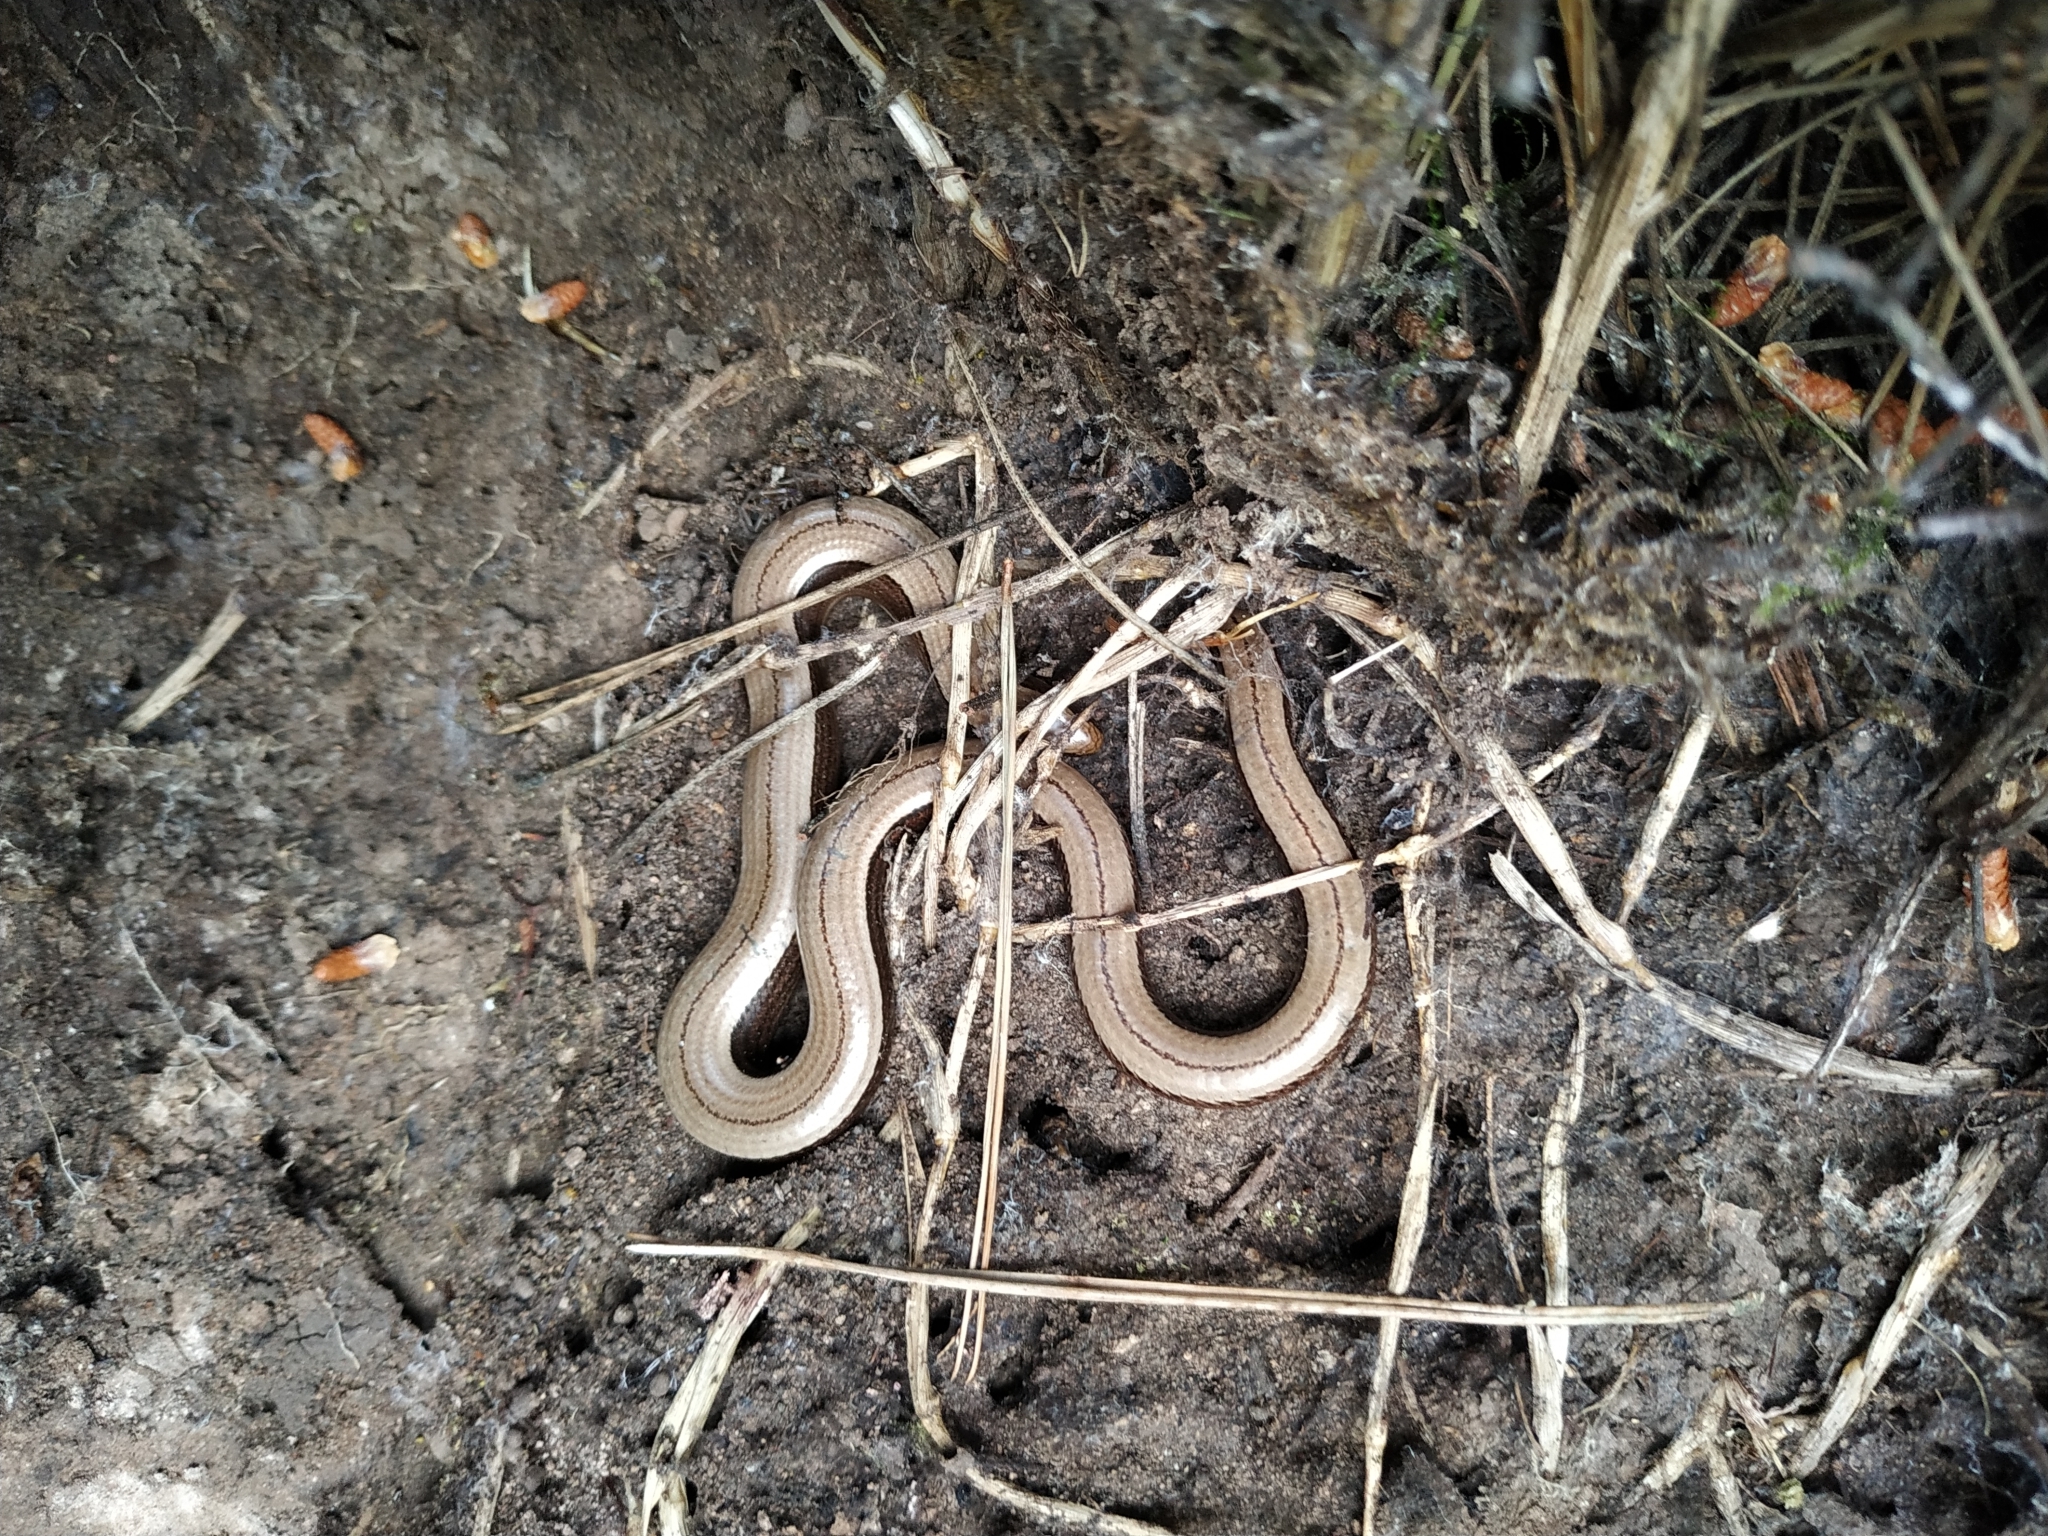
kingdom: Animalia
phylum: Chordata
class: Squamata
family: Anguidae
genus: Anguis
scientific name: Anguis fragilis
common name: Slow worm
